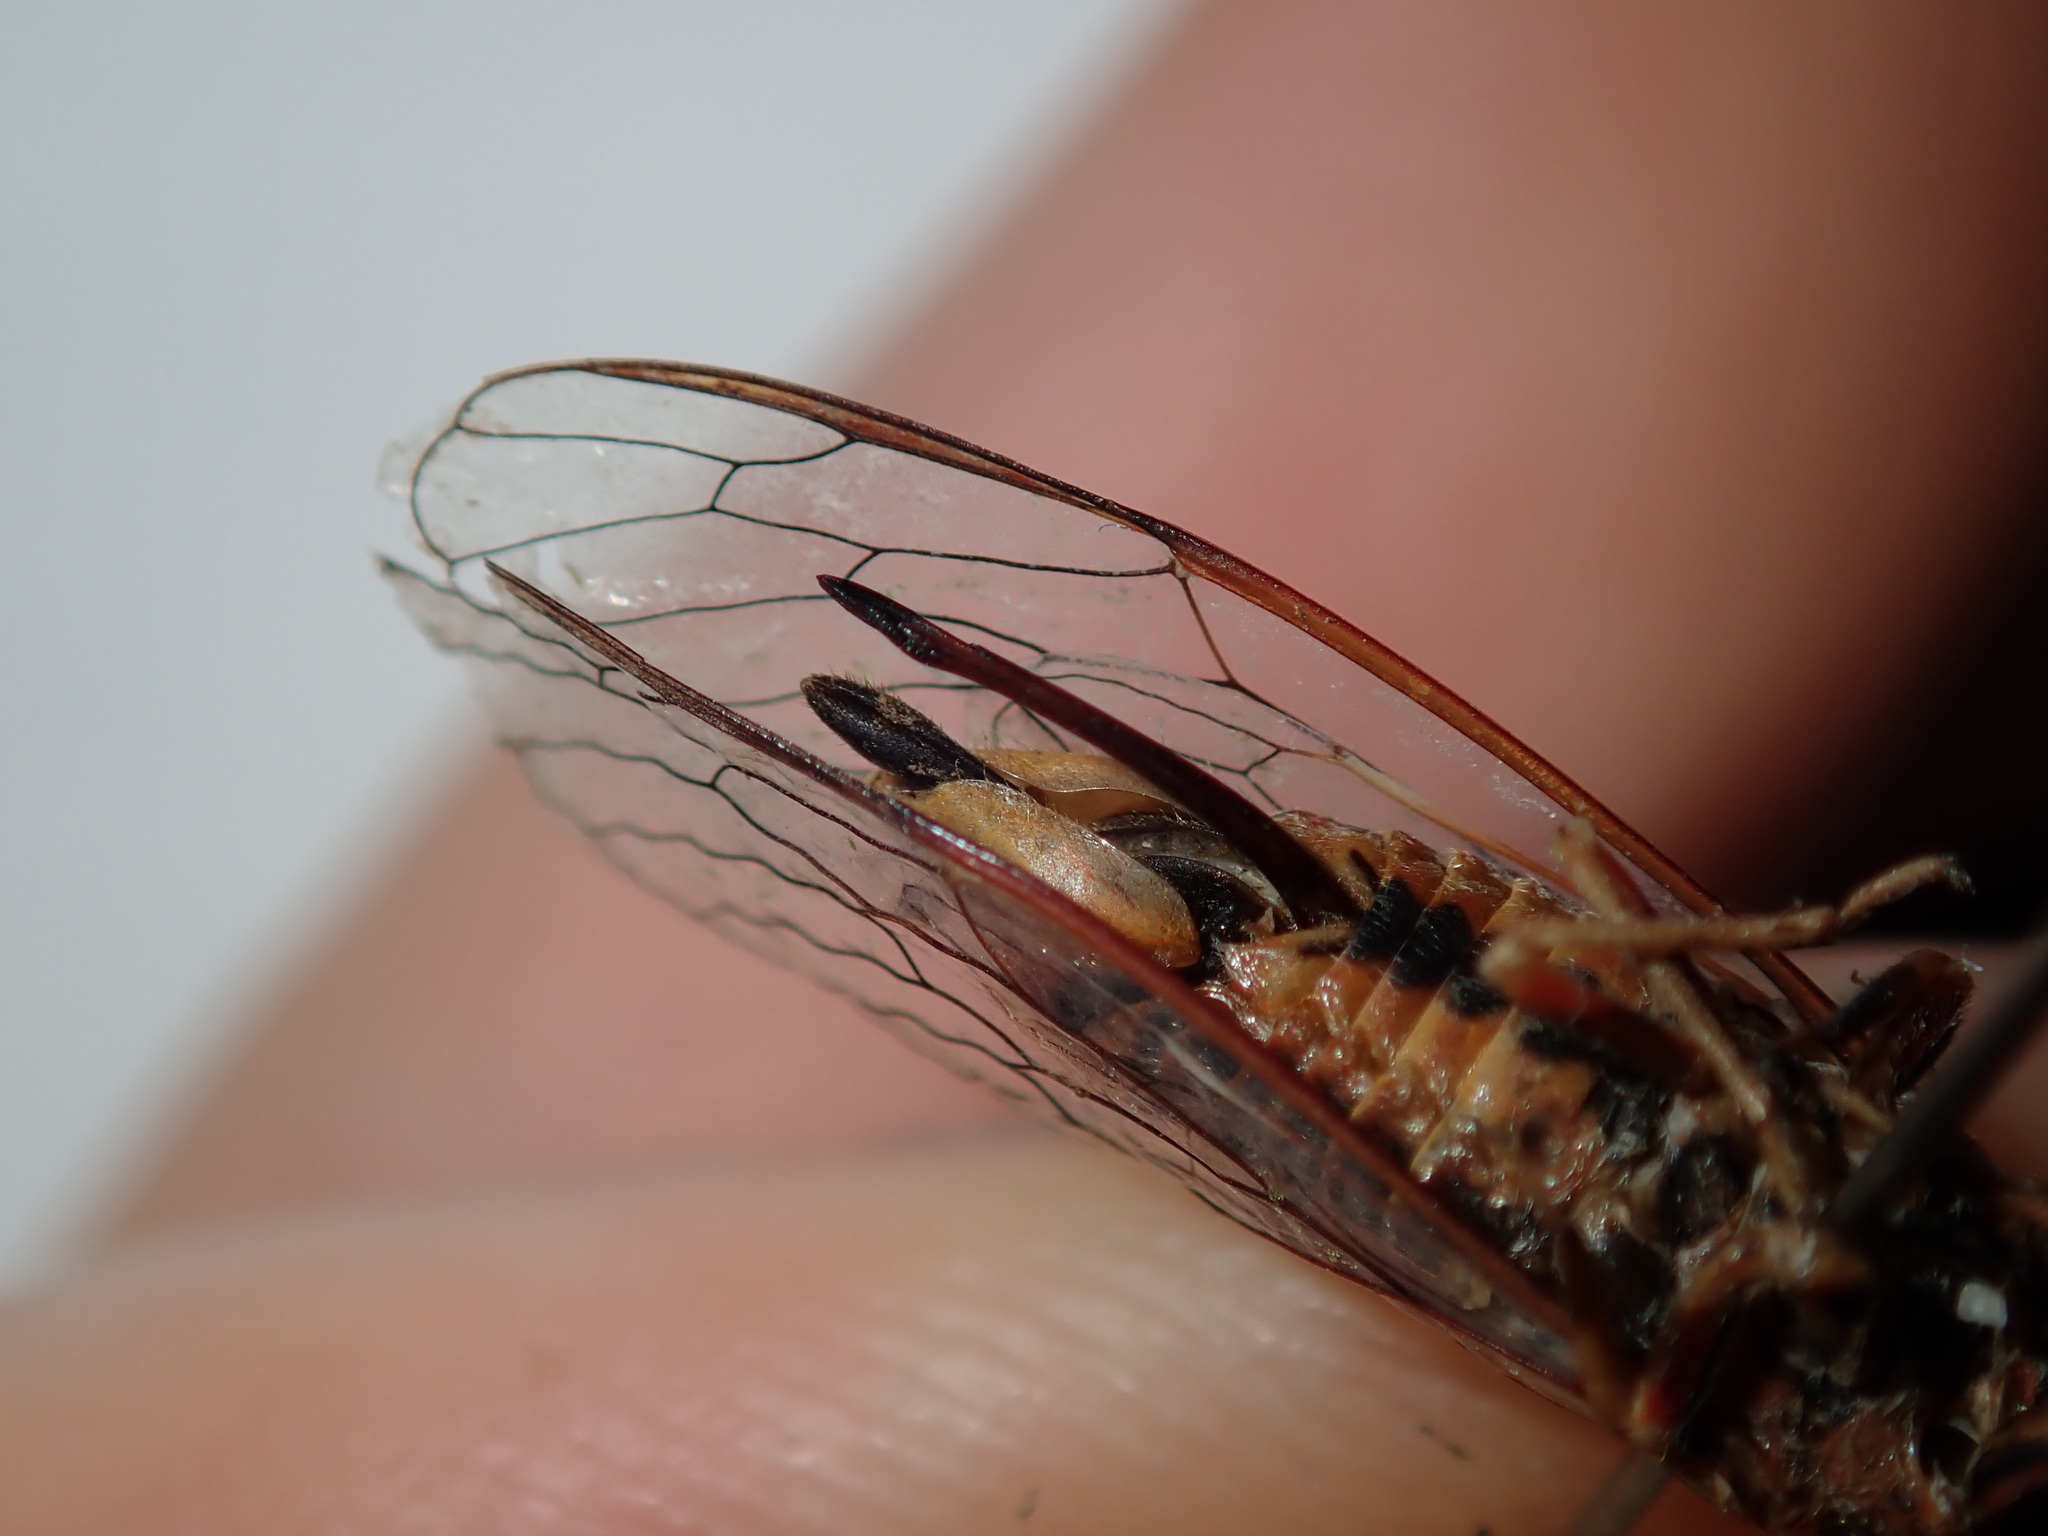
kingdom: Animalia
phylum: Arthropoda
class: Insecta
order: Hemiptera
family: Cicadidae
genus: Popplepsalta
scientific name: Popplepsalta notialis
